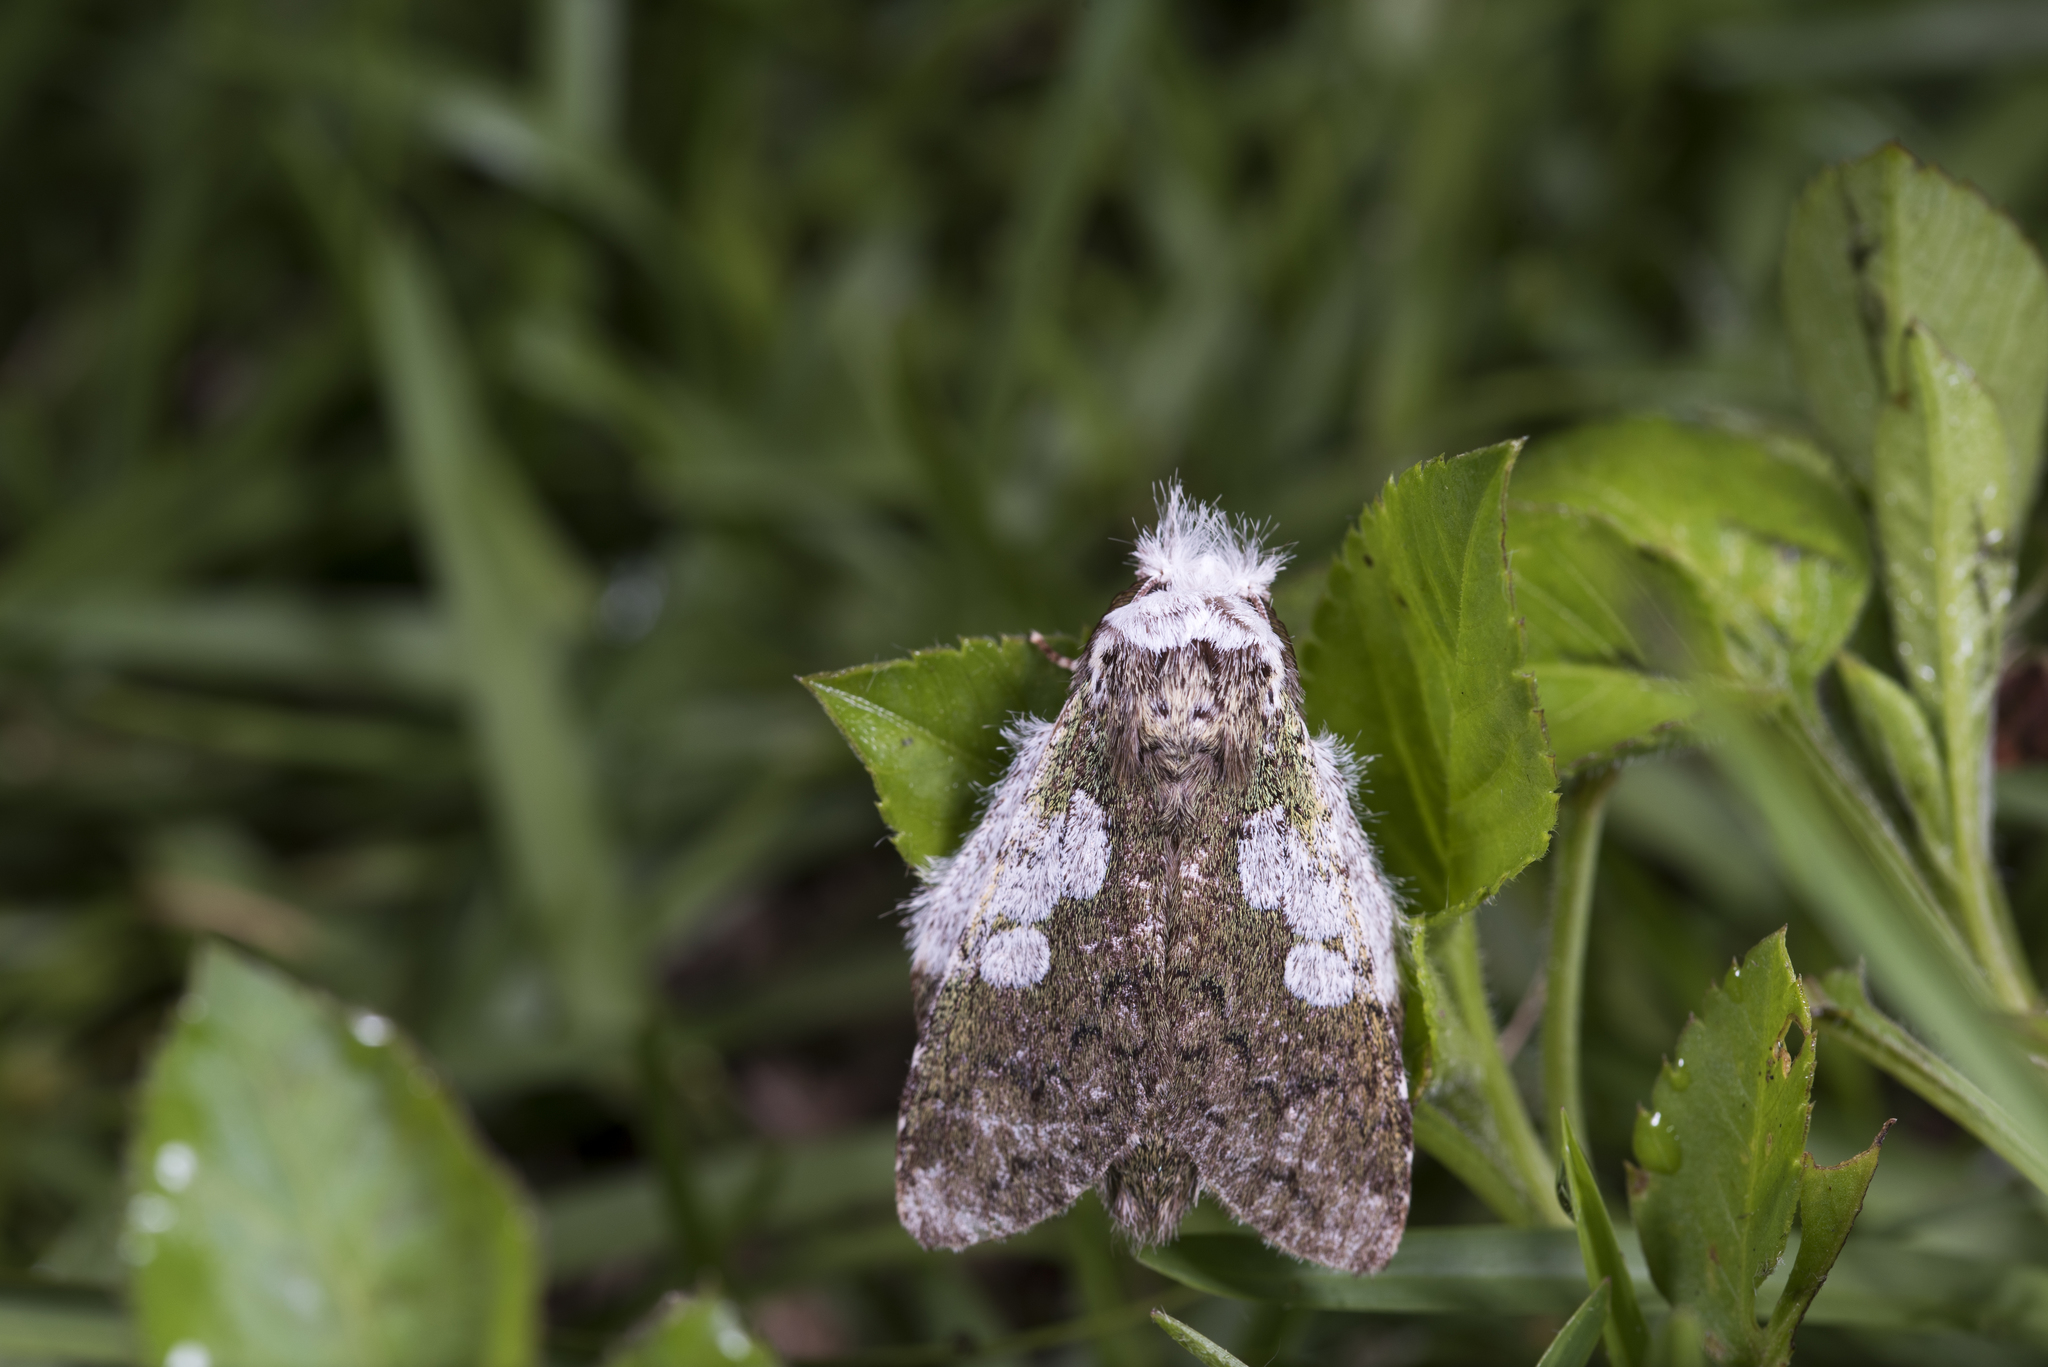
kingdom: Animalia
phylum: Arthropoda
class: Insecta
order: Lepidoptera
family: Notodontidae
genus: Syntypistis
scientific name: Syntypistis comatus
